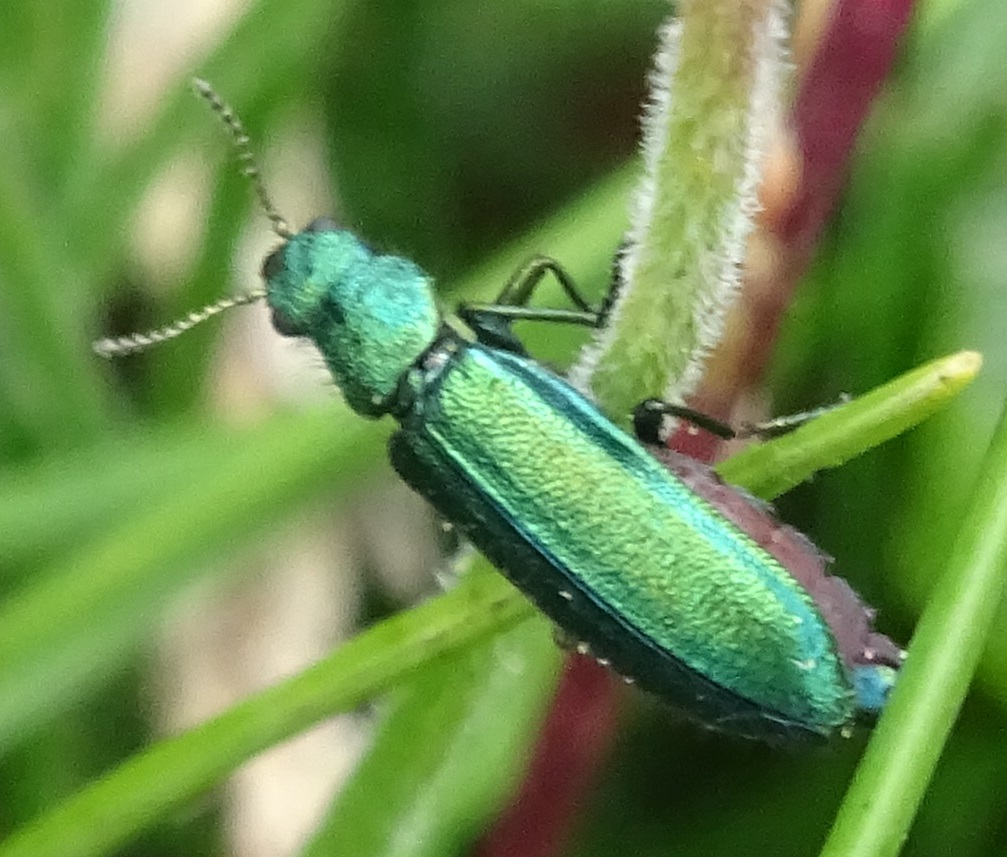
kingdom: Animalia
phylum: Arthropoda
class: Insecta
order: Coleoptera
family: Dasytidae
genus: Psilothrix
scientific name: Psilothrix viridicoerulea
